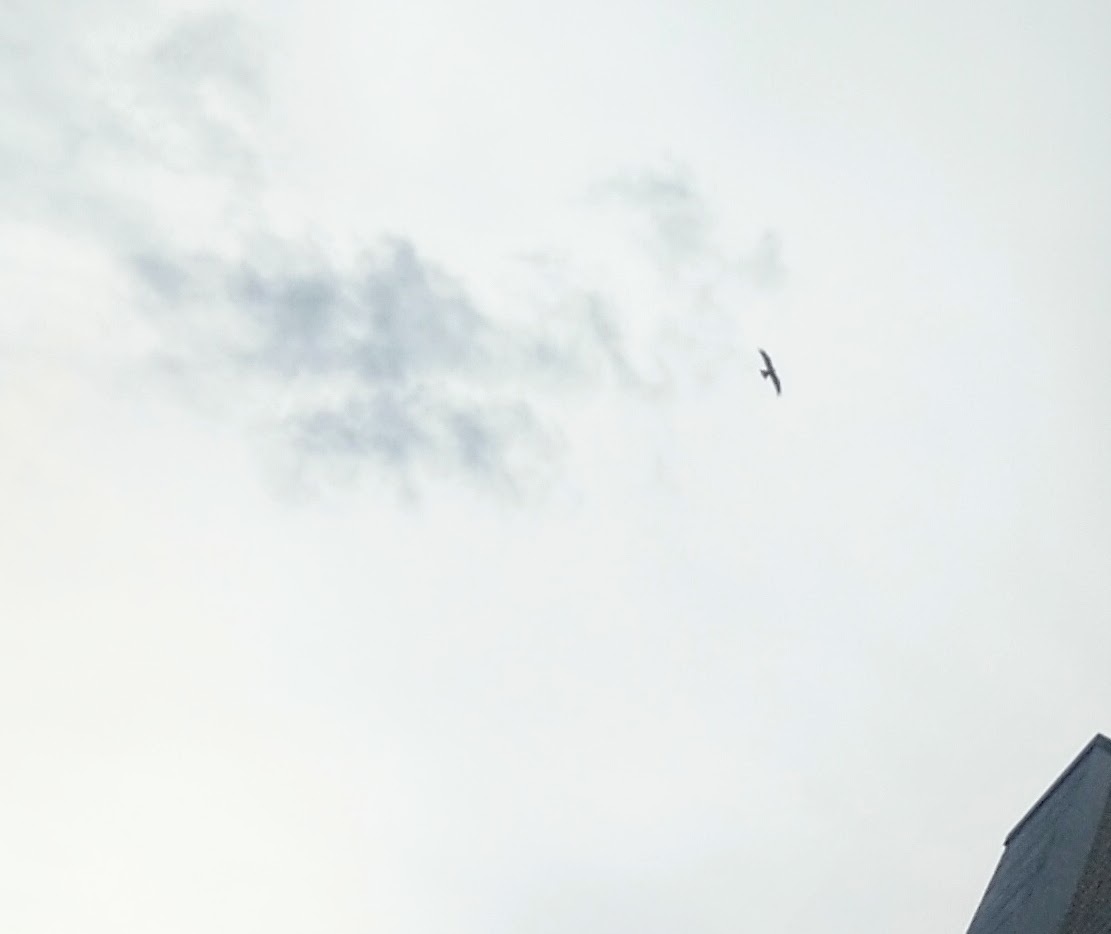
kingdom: Animalia
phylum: Chordata
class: Aves
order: Accipitriformes
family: Accipitridae
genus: Milvus
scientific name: Milvus migrans
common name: Black kite
